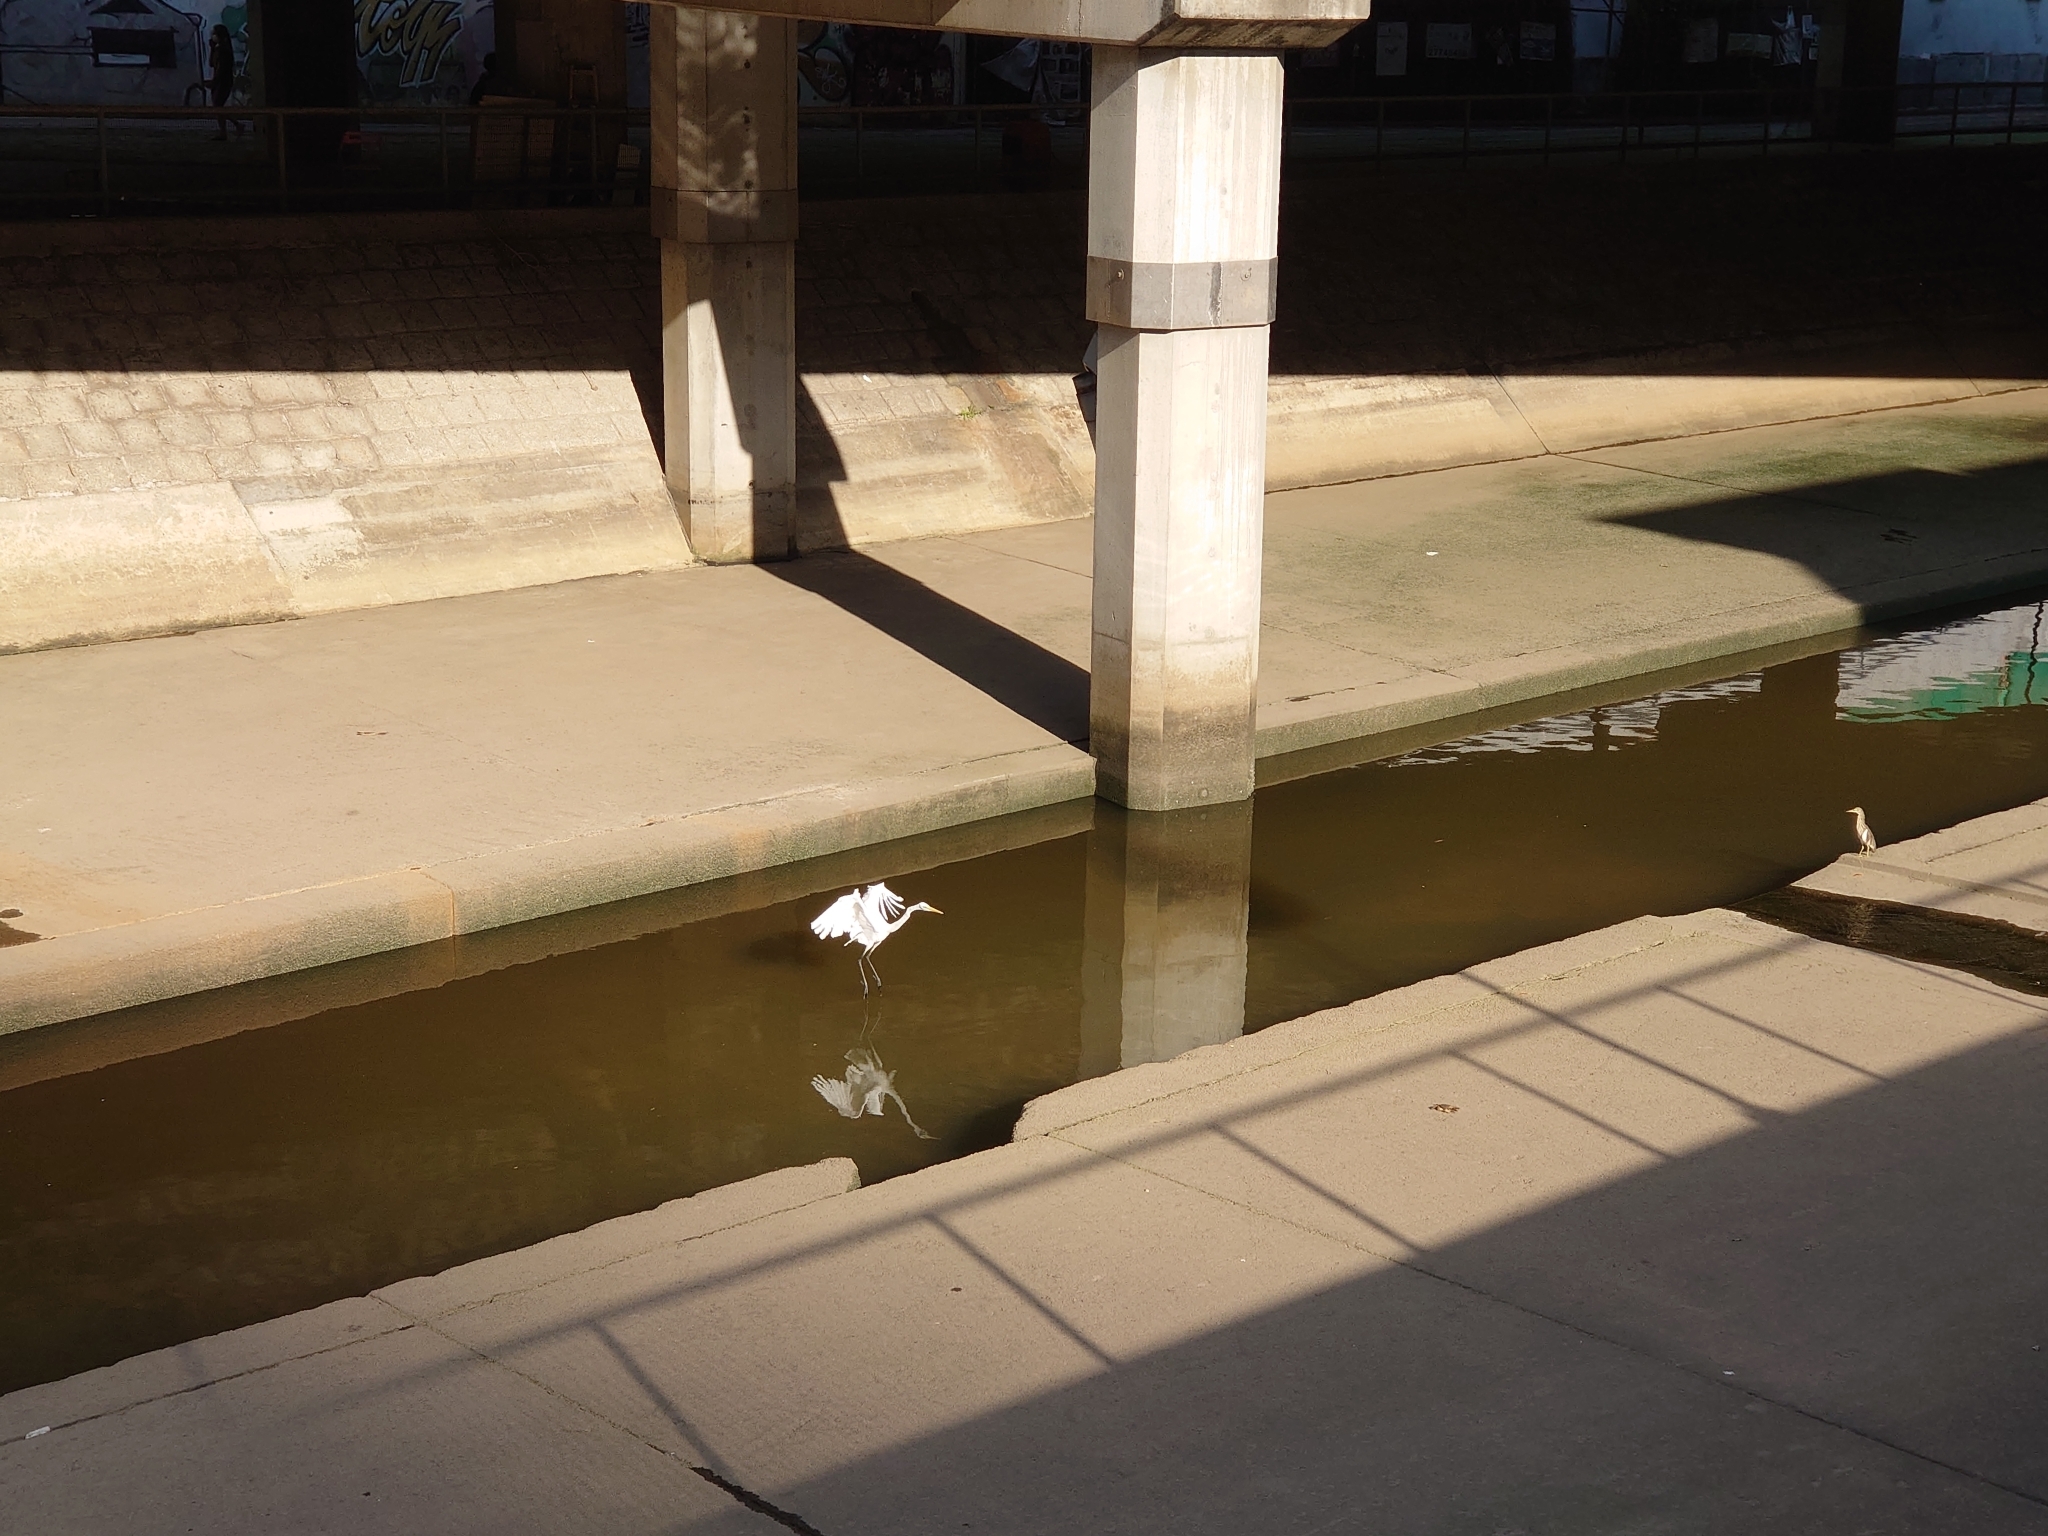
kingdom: Animalia
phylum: Chordata
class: Aves
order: Pelecaniformes
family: Ardeidae
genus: Ardeola
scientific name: Ardeola bacchus
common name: Chinese pond heron
